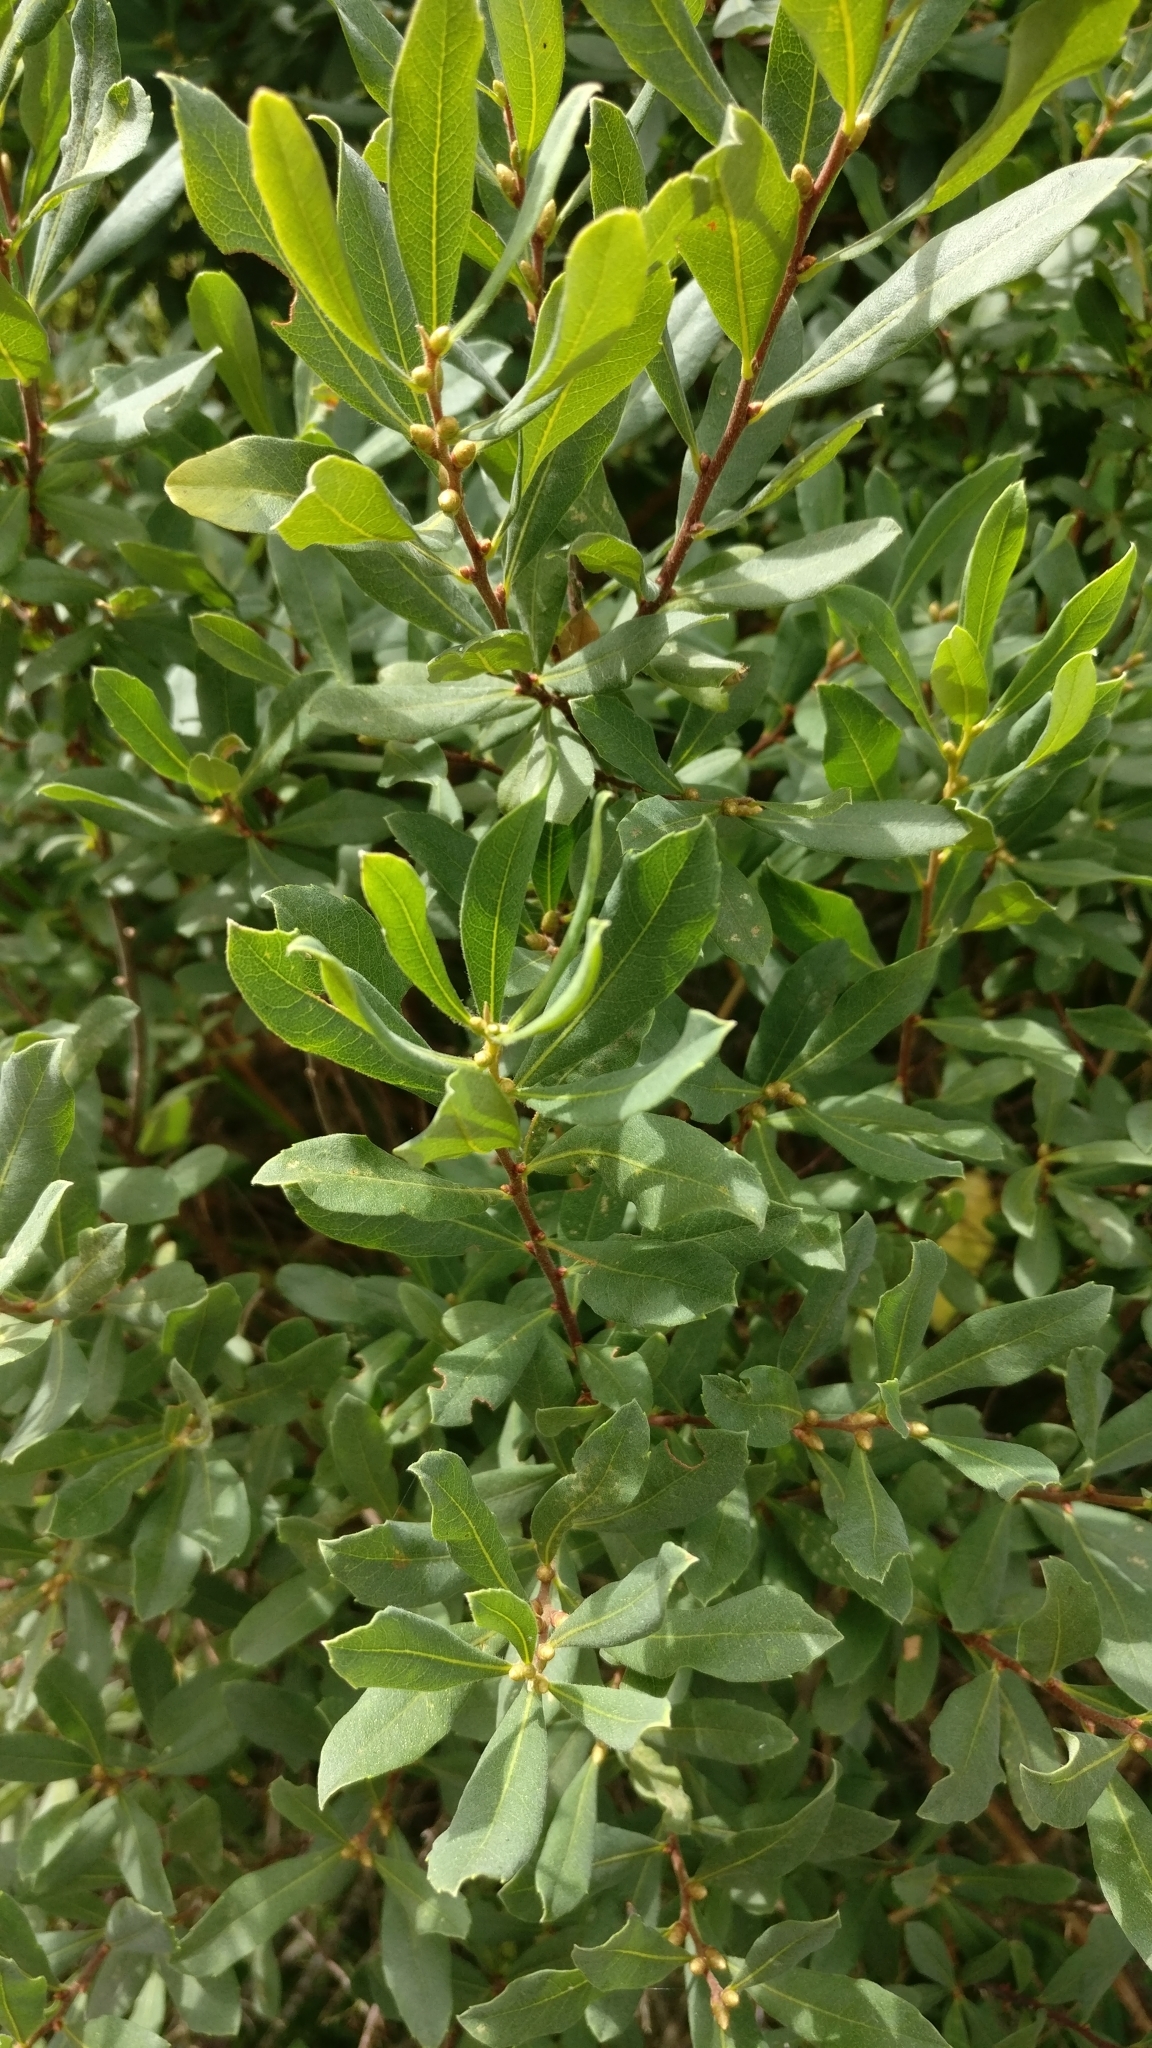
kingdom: Plantae
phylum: Tracheophyta
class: Magnoliopsida
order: Fagales
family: Myricaceae
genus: Myrica
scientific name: Myrica gale
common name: Sweet gale
